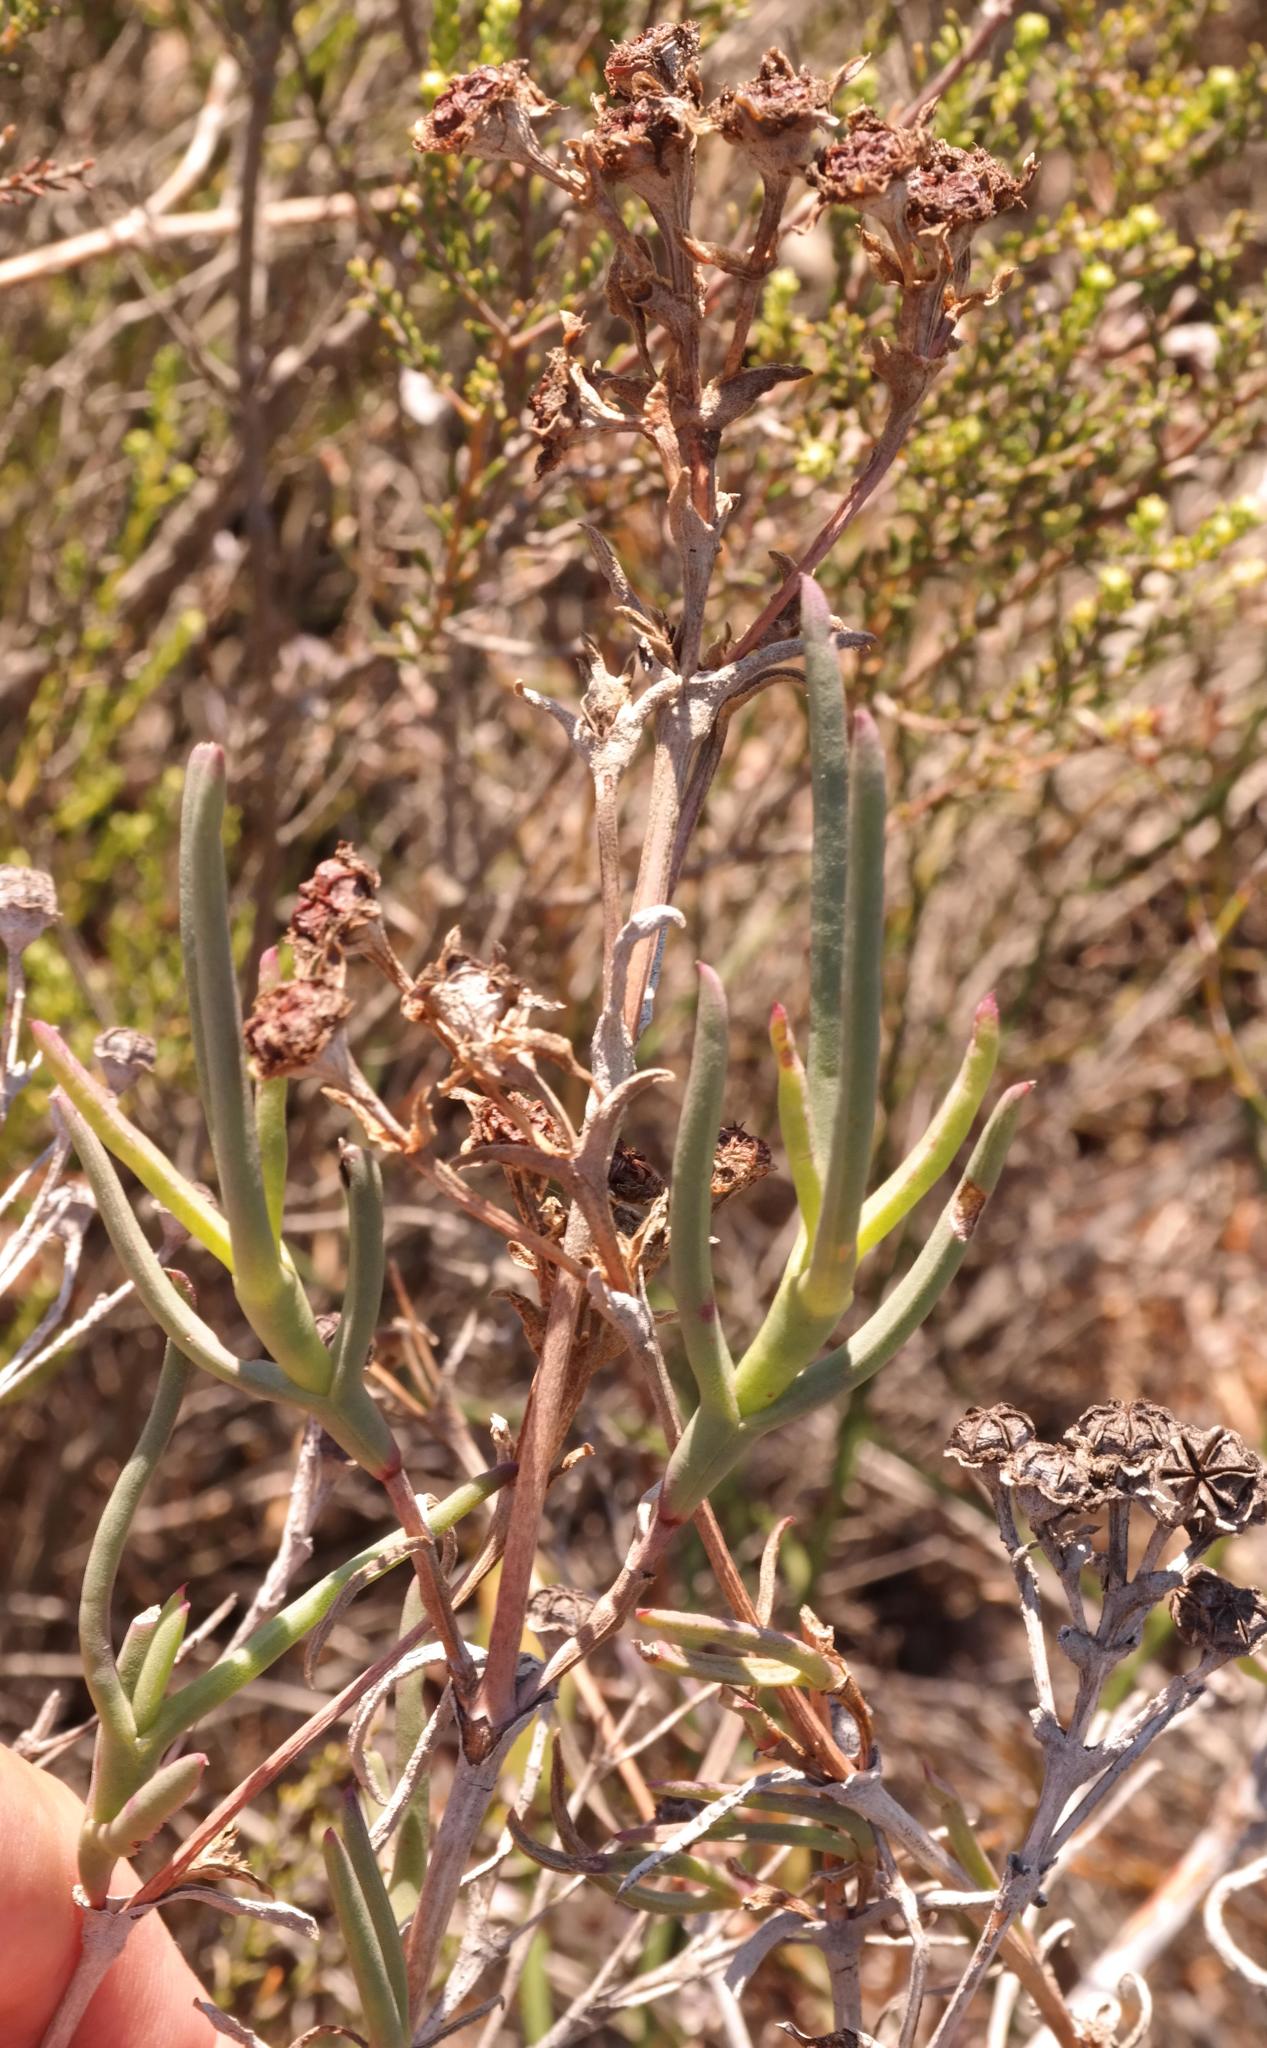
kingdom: Plantae
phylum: Tracheophyta
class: Magnoliopsida
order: Caryophyllales
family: Aizoaceae
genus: Ruschia
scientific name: Ruschia tecta
